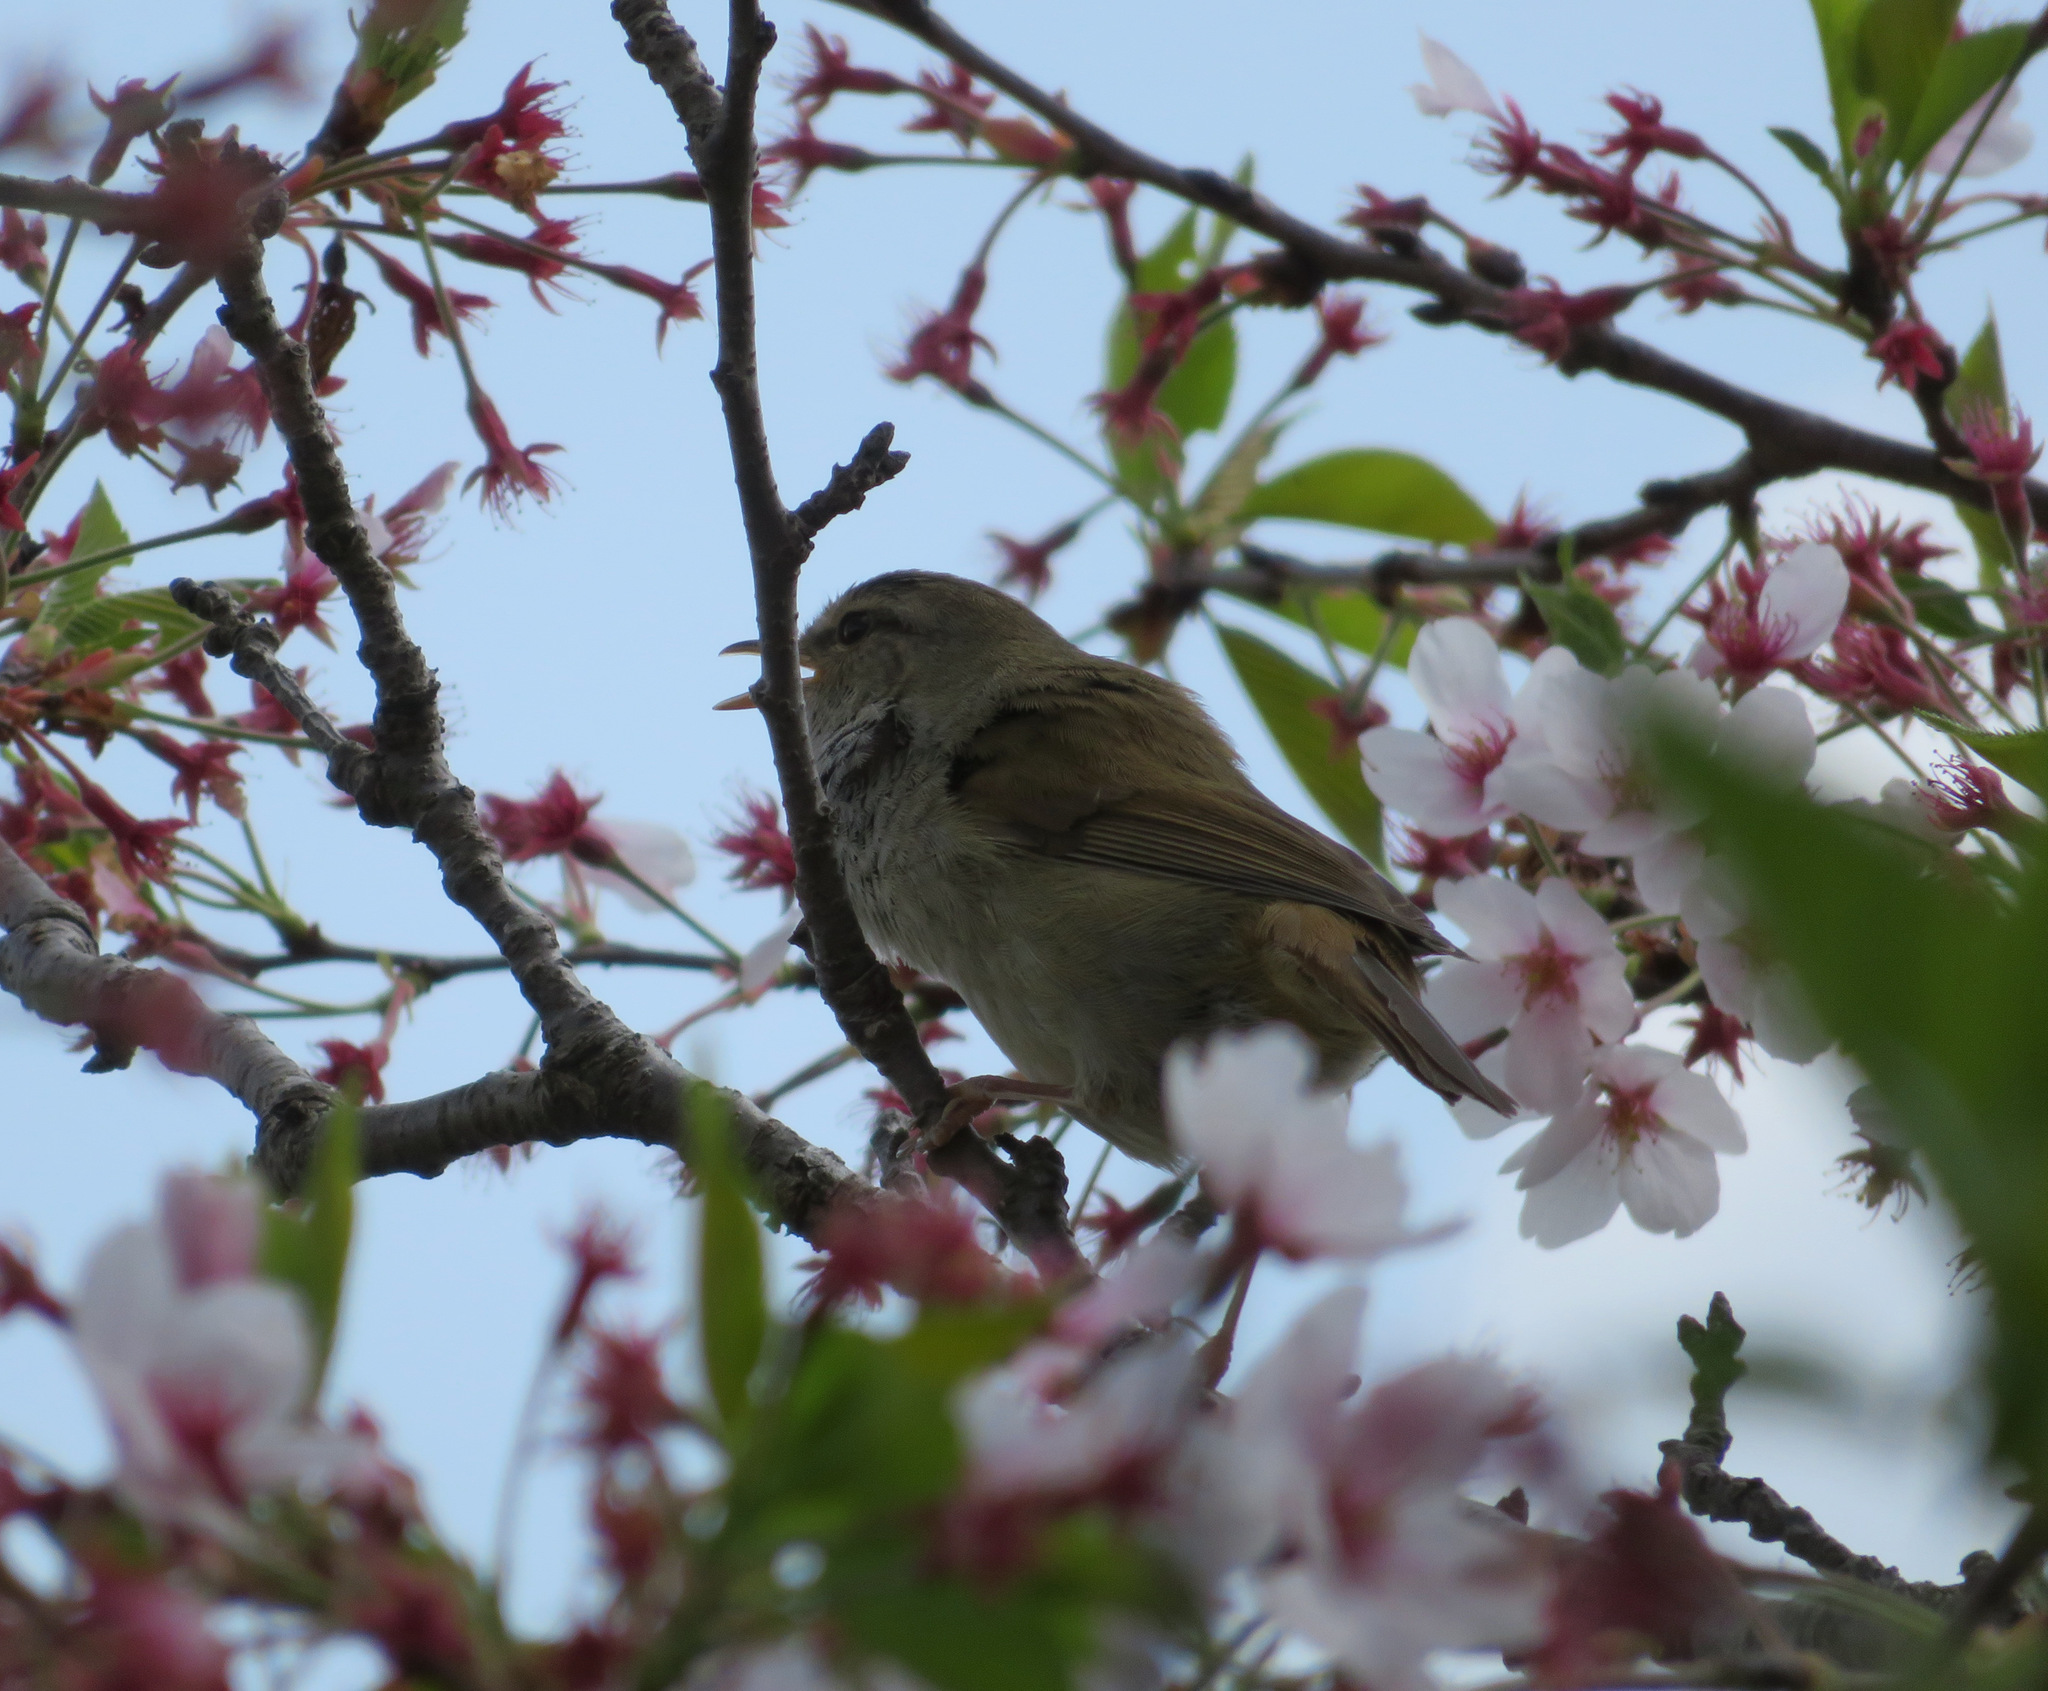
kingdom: Animalia
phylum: Chordata
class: Aves
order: Passeriformes
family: Cettiidae
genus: Horornis
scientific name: Horornis diphone
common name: Japanese bush warbler
